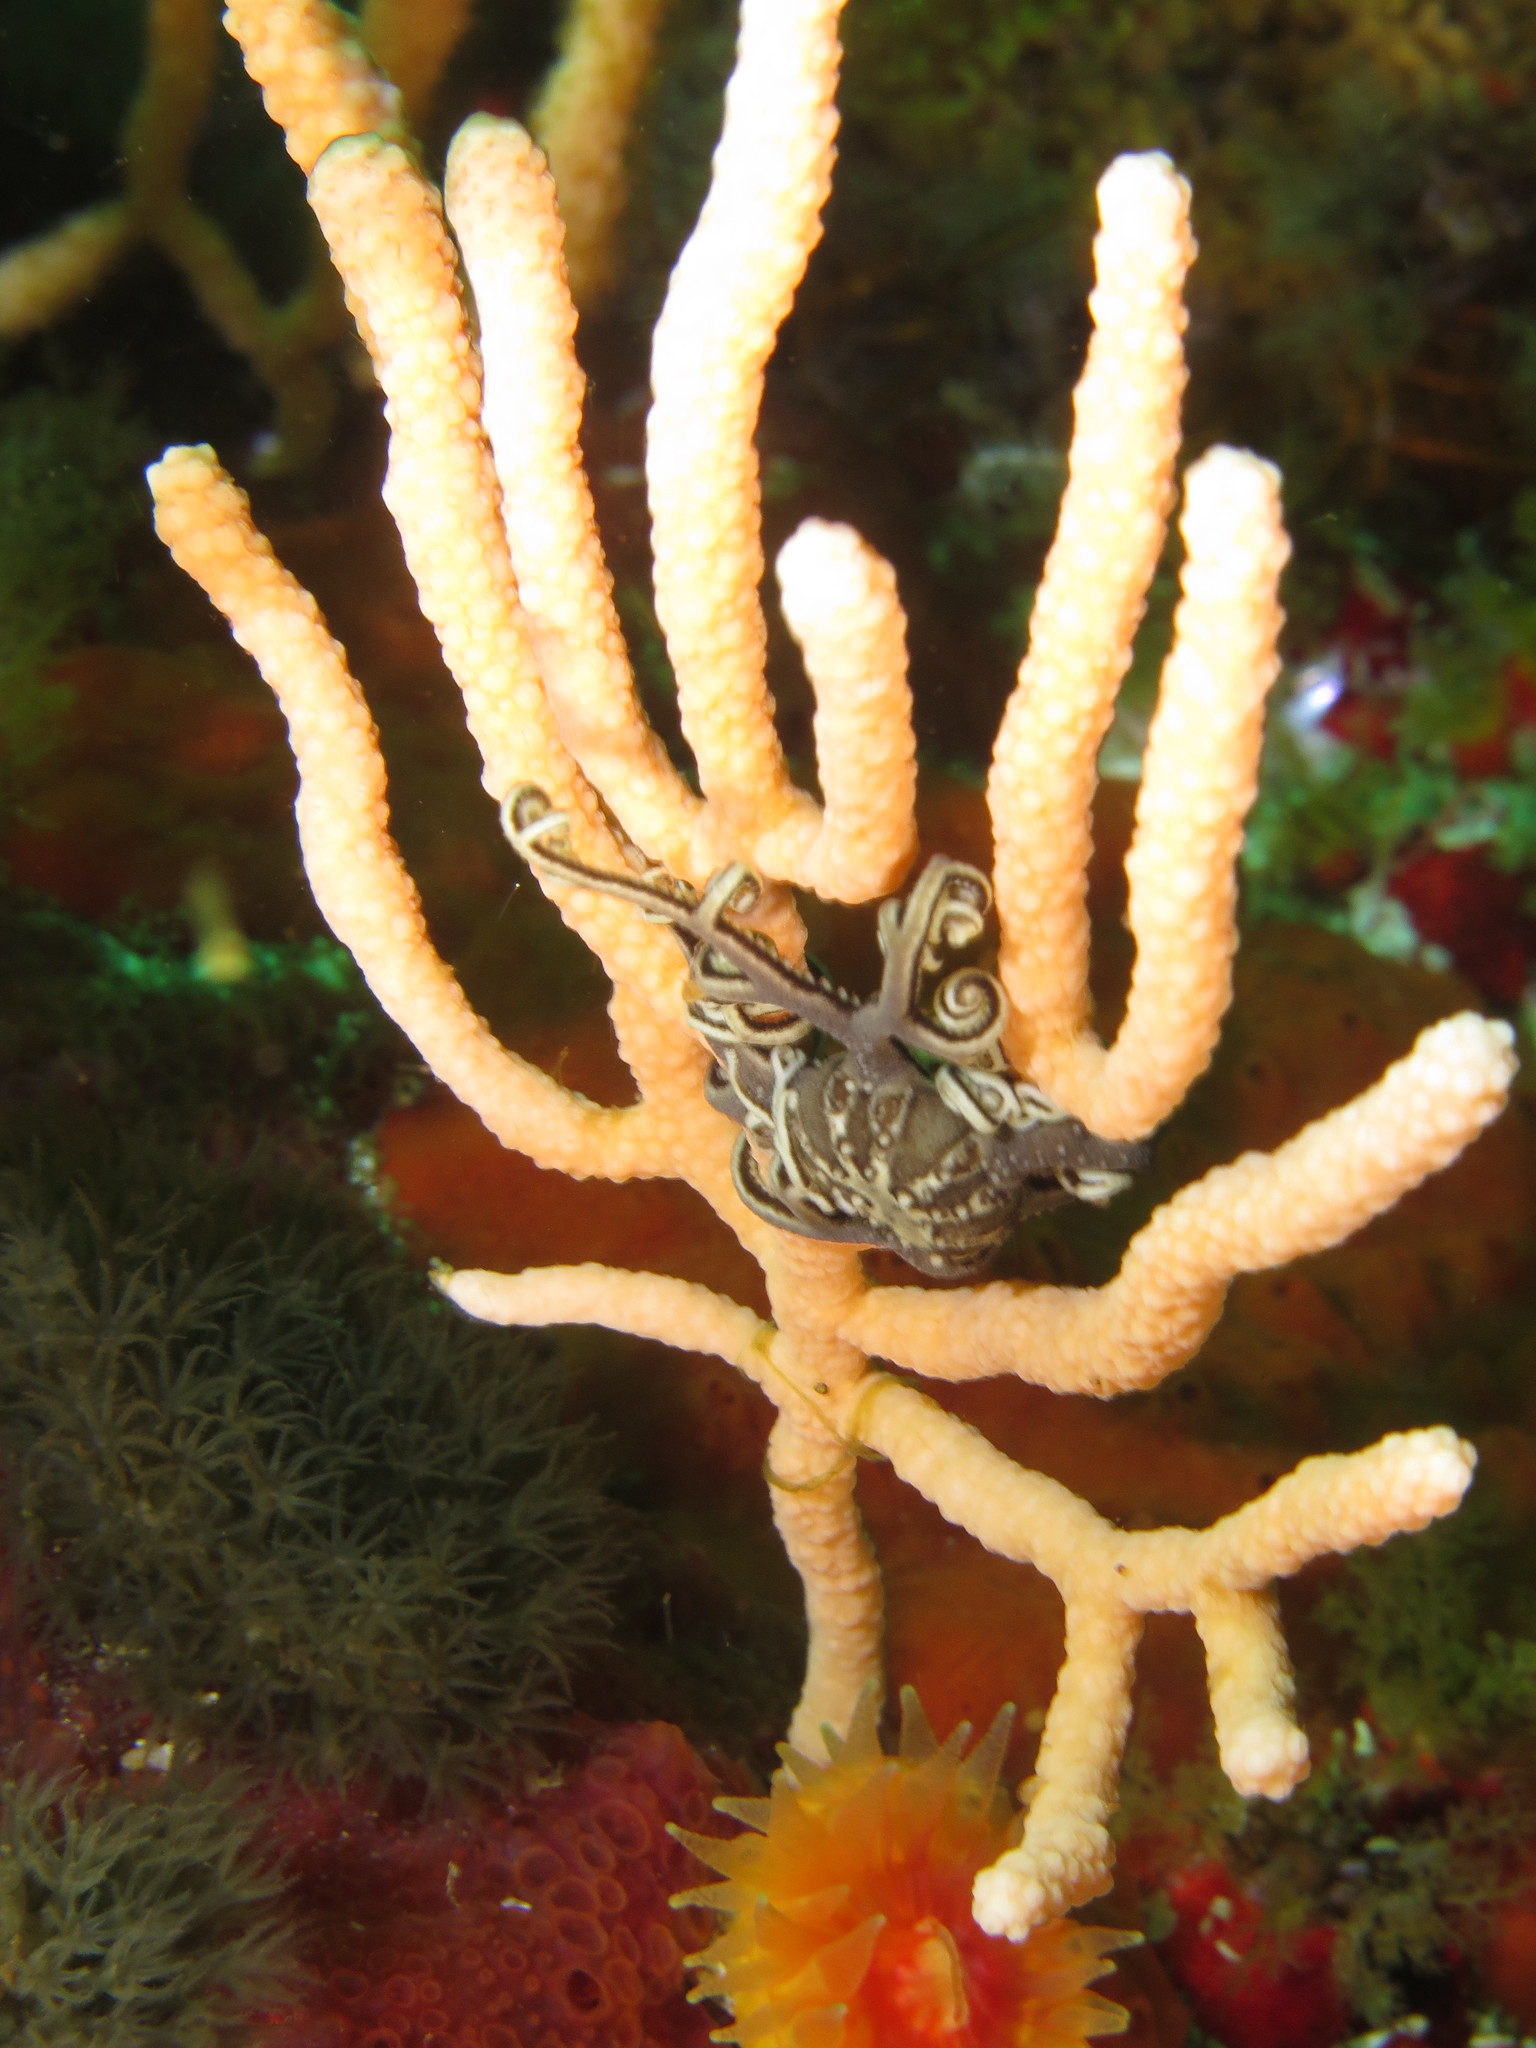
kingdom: Animalia
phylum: Echinodermata
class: Ophiuroidea
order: Euryalida
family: Gorgonocephalidae
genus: Astrocladus
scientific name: Astrocladus euryale
